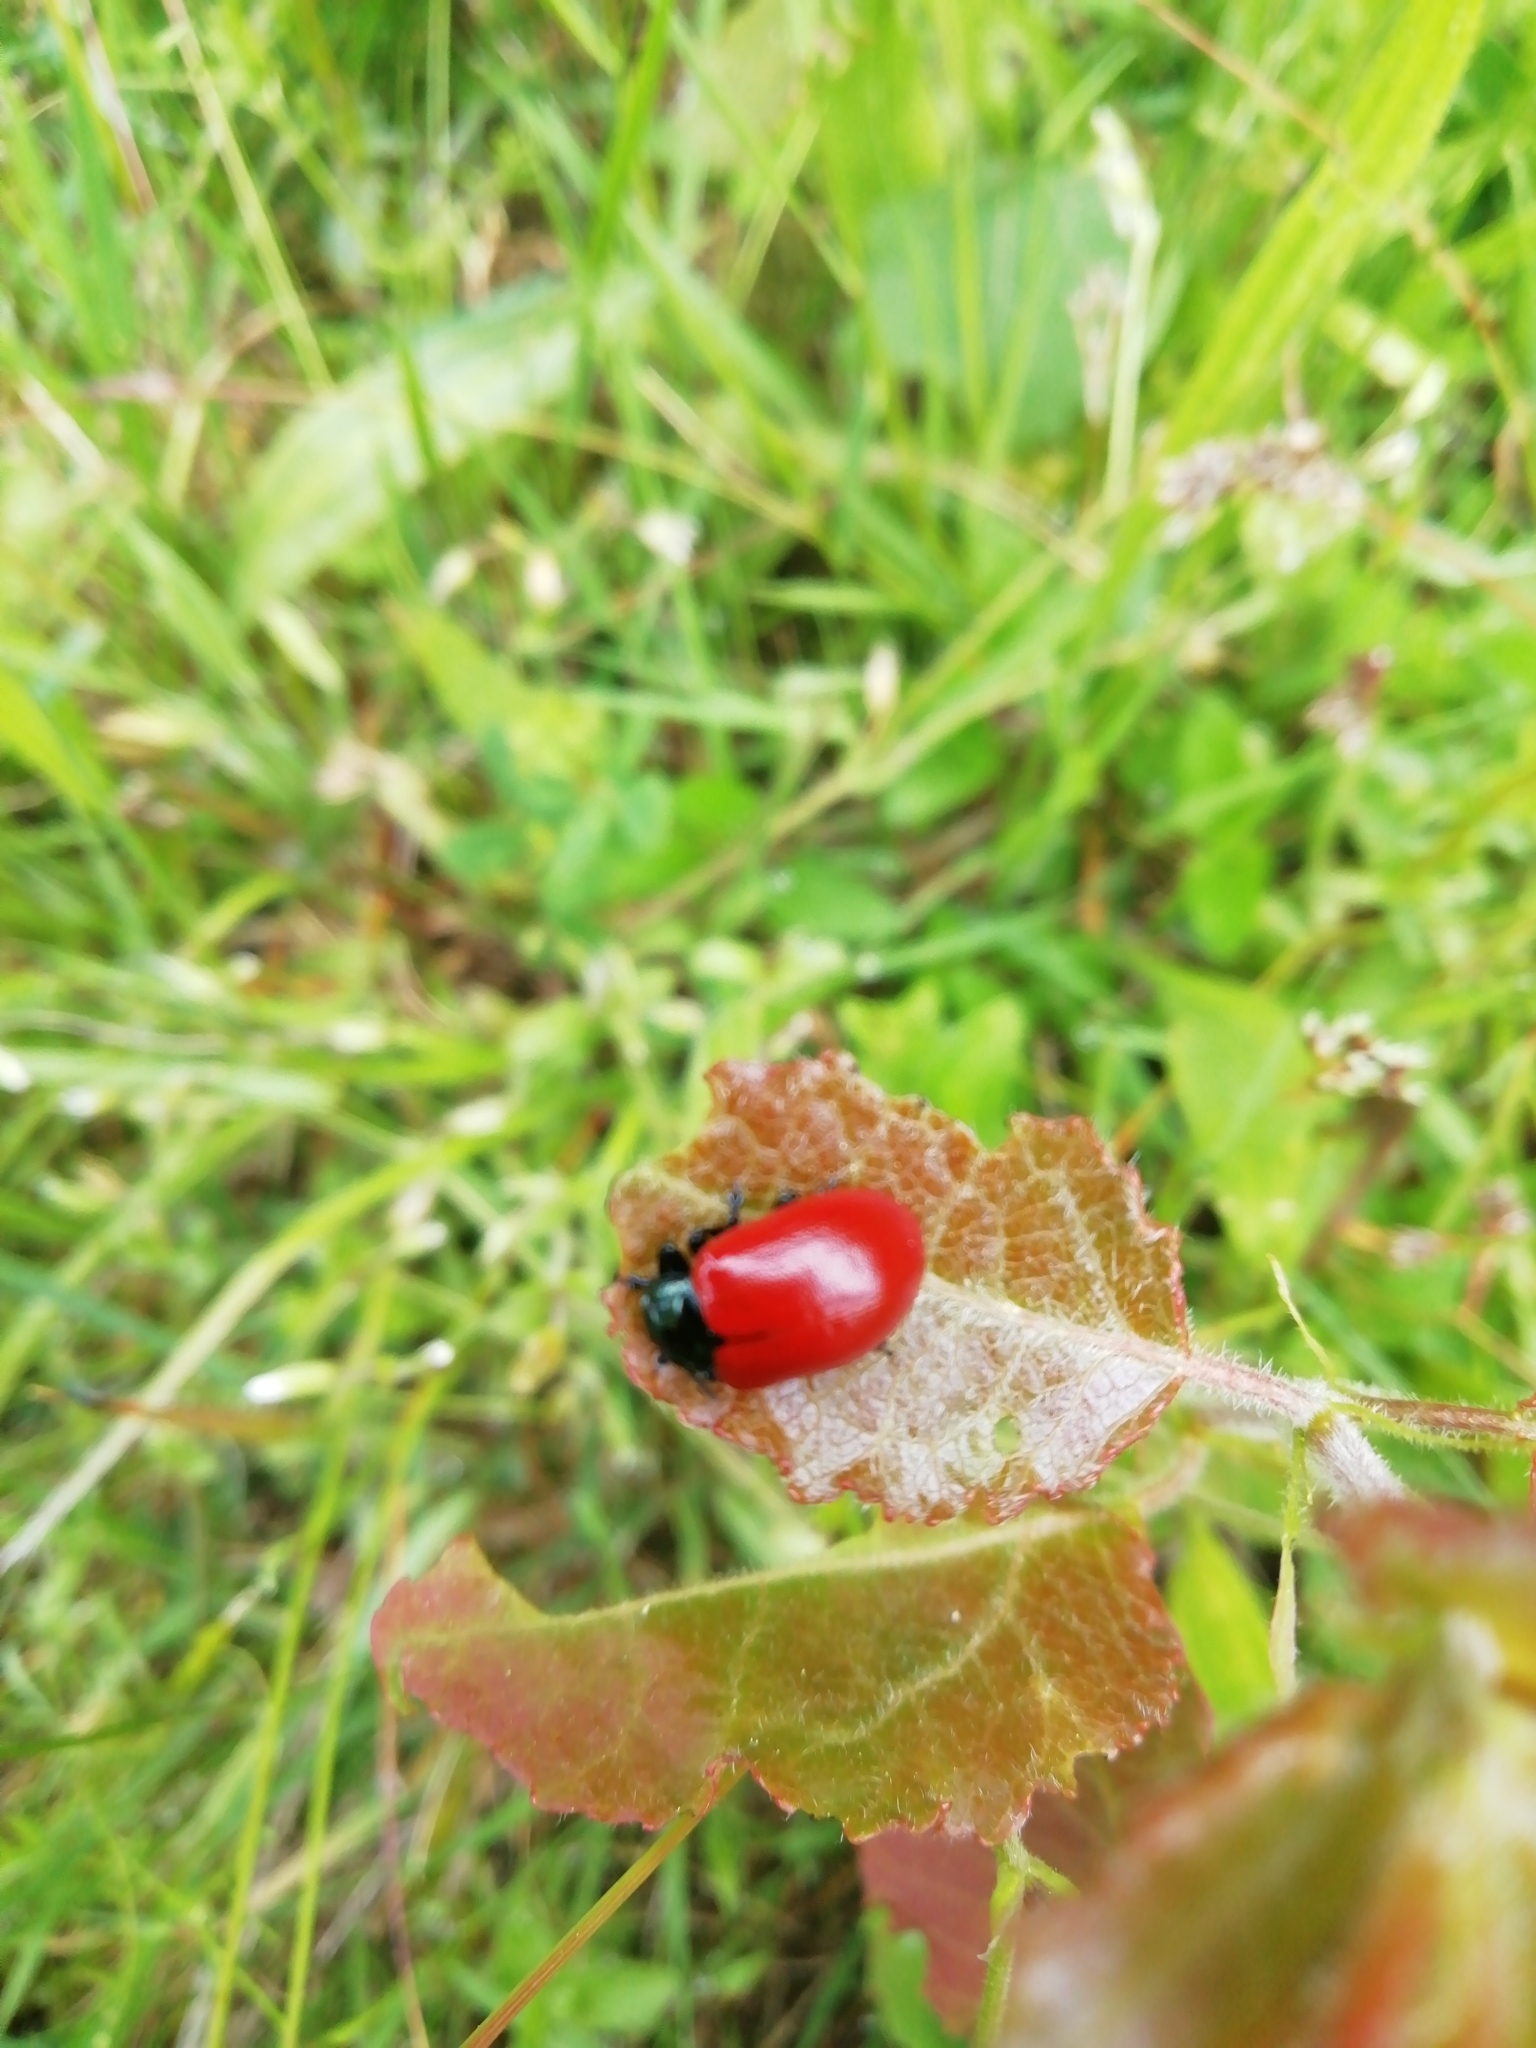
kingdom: Animalia
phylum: Arthropoda
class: Insecta
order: Coleoptera
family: Chrysomelidae
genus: Chrysomela
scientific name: Chrysomela populi
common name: Red poplar leaf beetle
